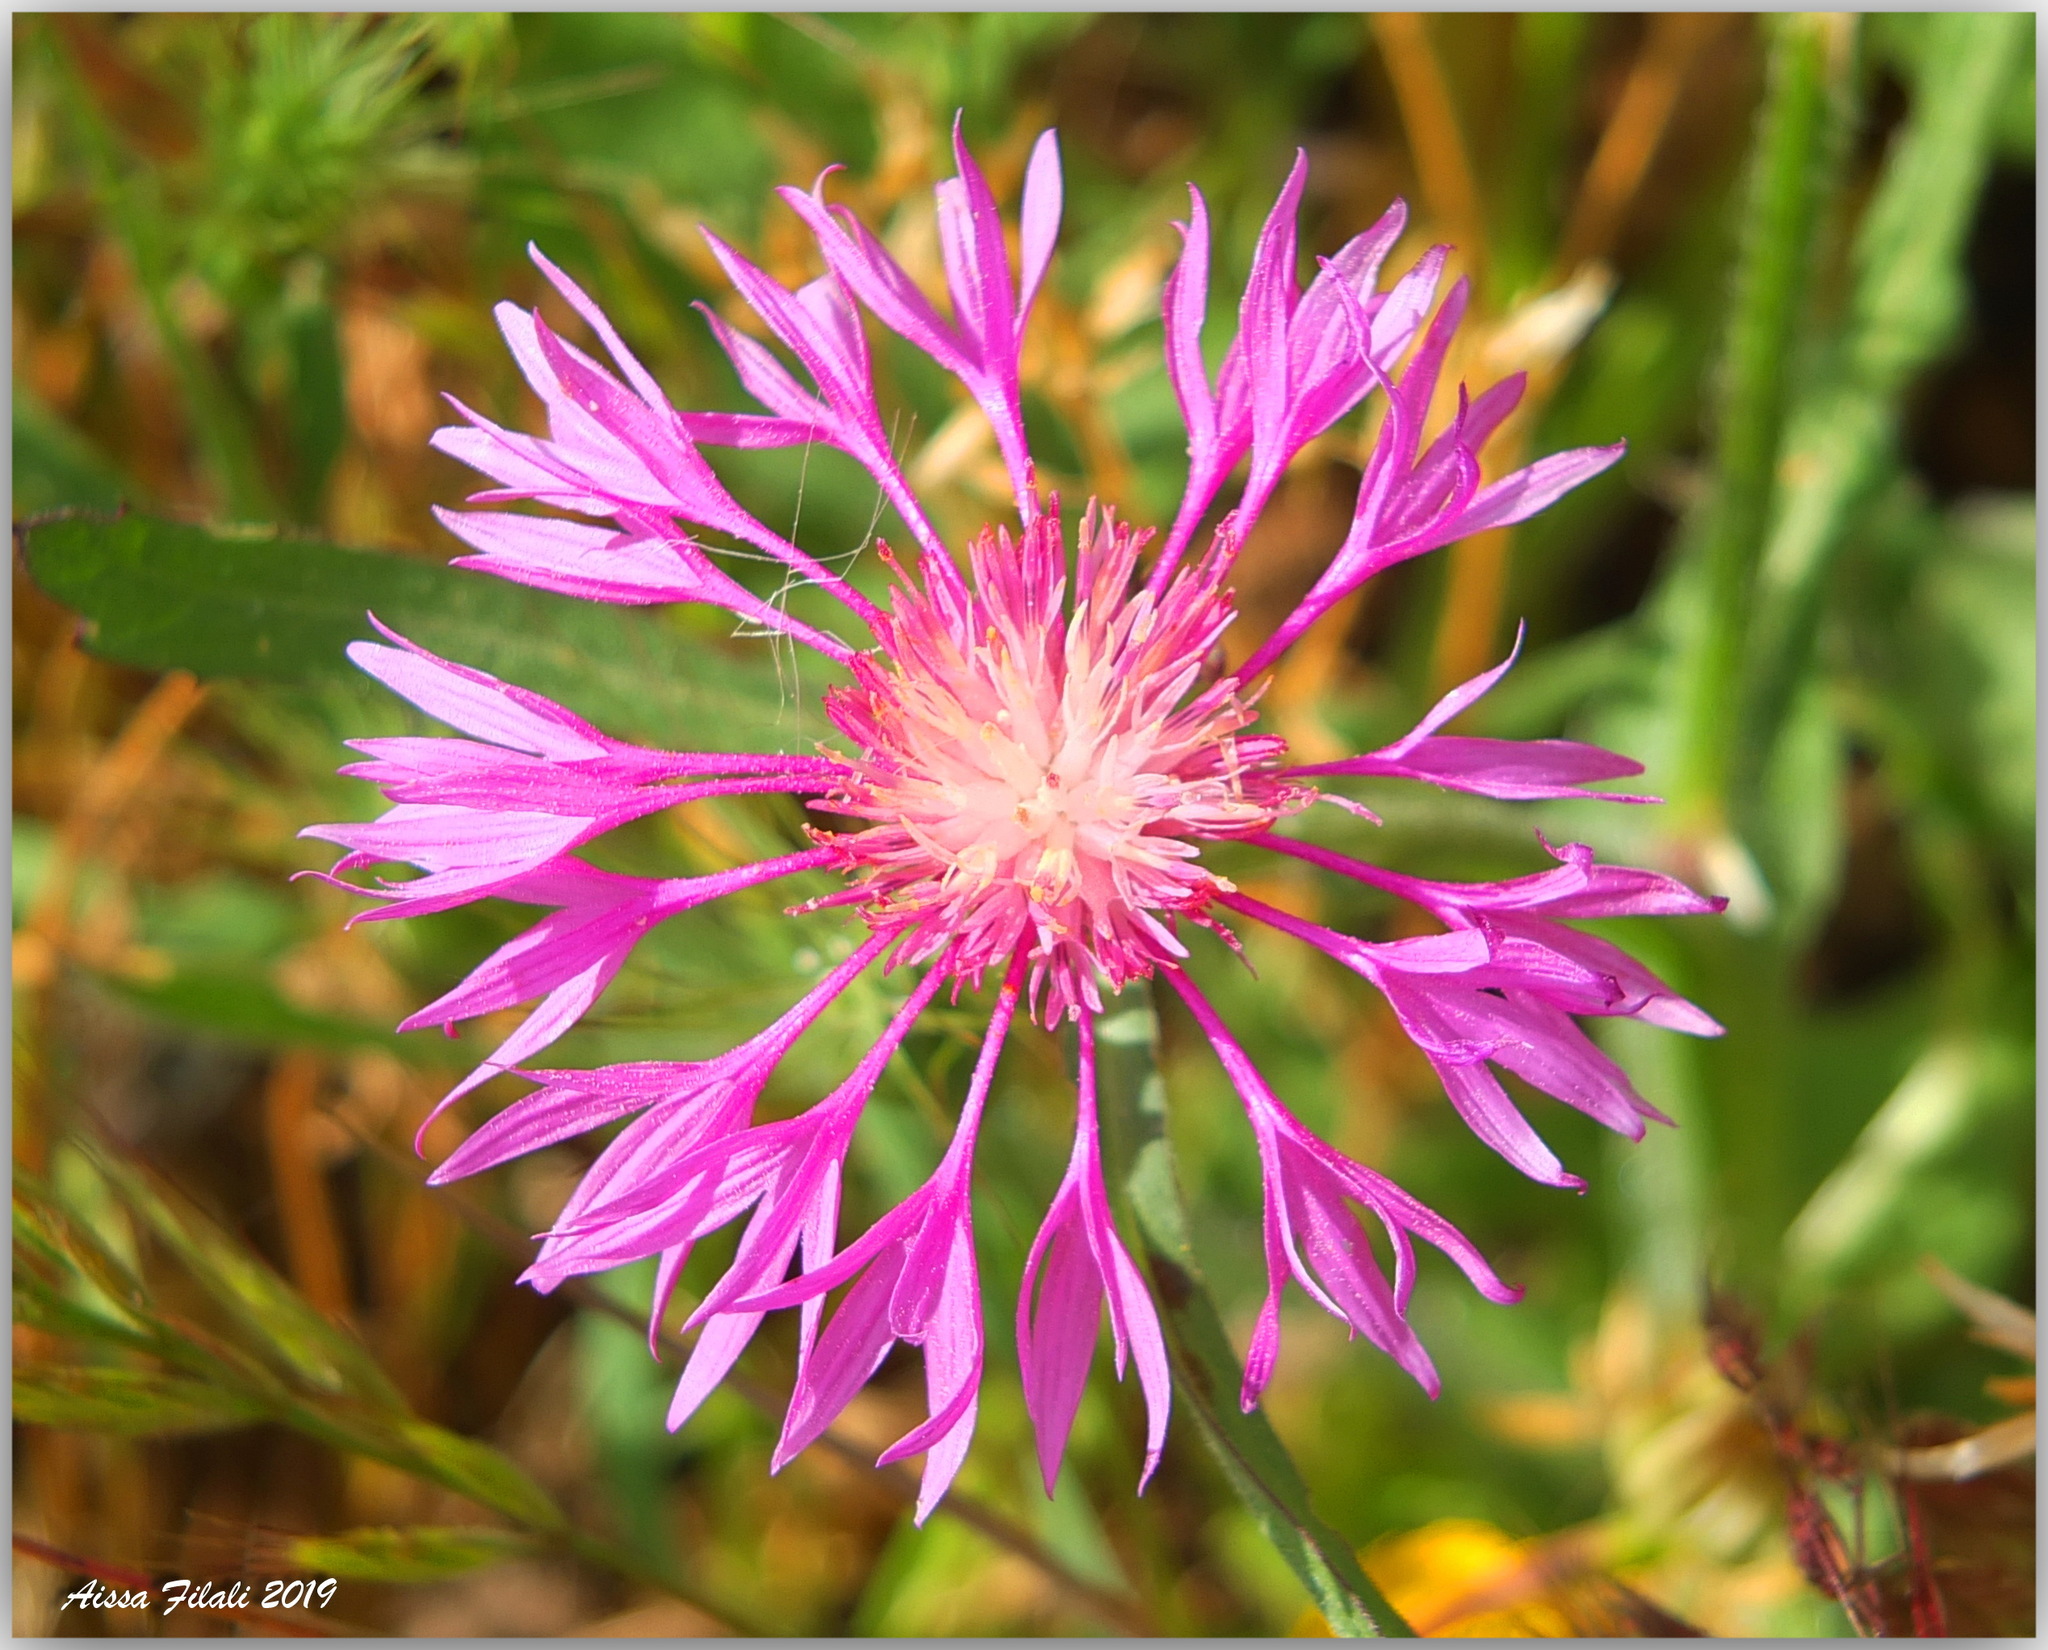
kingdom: Plantae
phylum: Tracheophyta
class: Magnoliopsida
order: Asterales
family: Asteraceae
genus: Centaurea
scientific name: Centaurea napifolia
